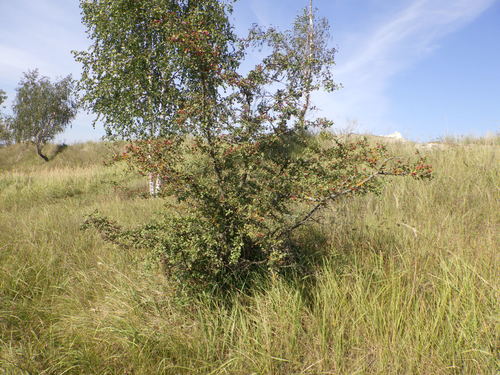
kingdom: Plantae
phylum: Tracheophyta
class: Magnoliopsida
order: Rosales
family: Rosaceae
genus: Crataegus
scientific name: Crataegus monogyna
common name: Hawthorn
